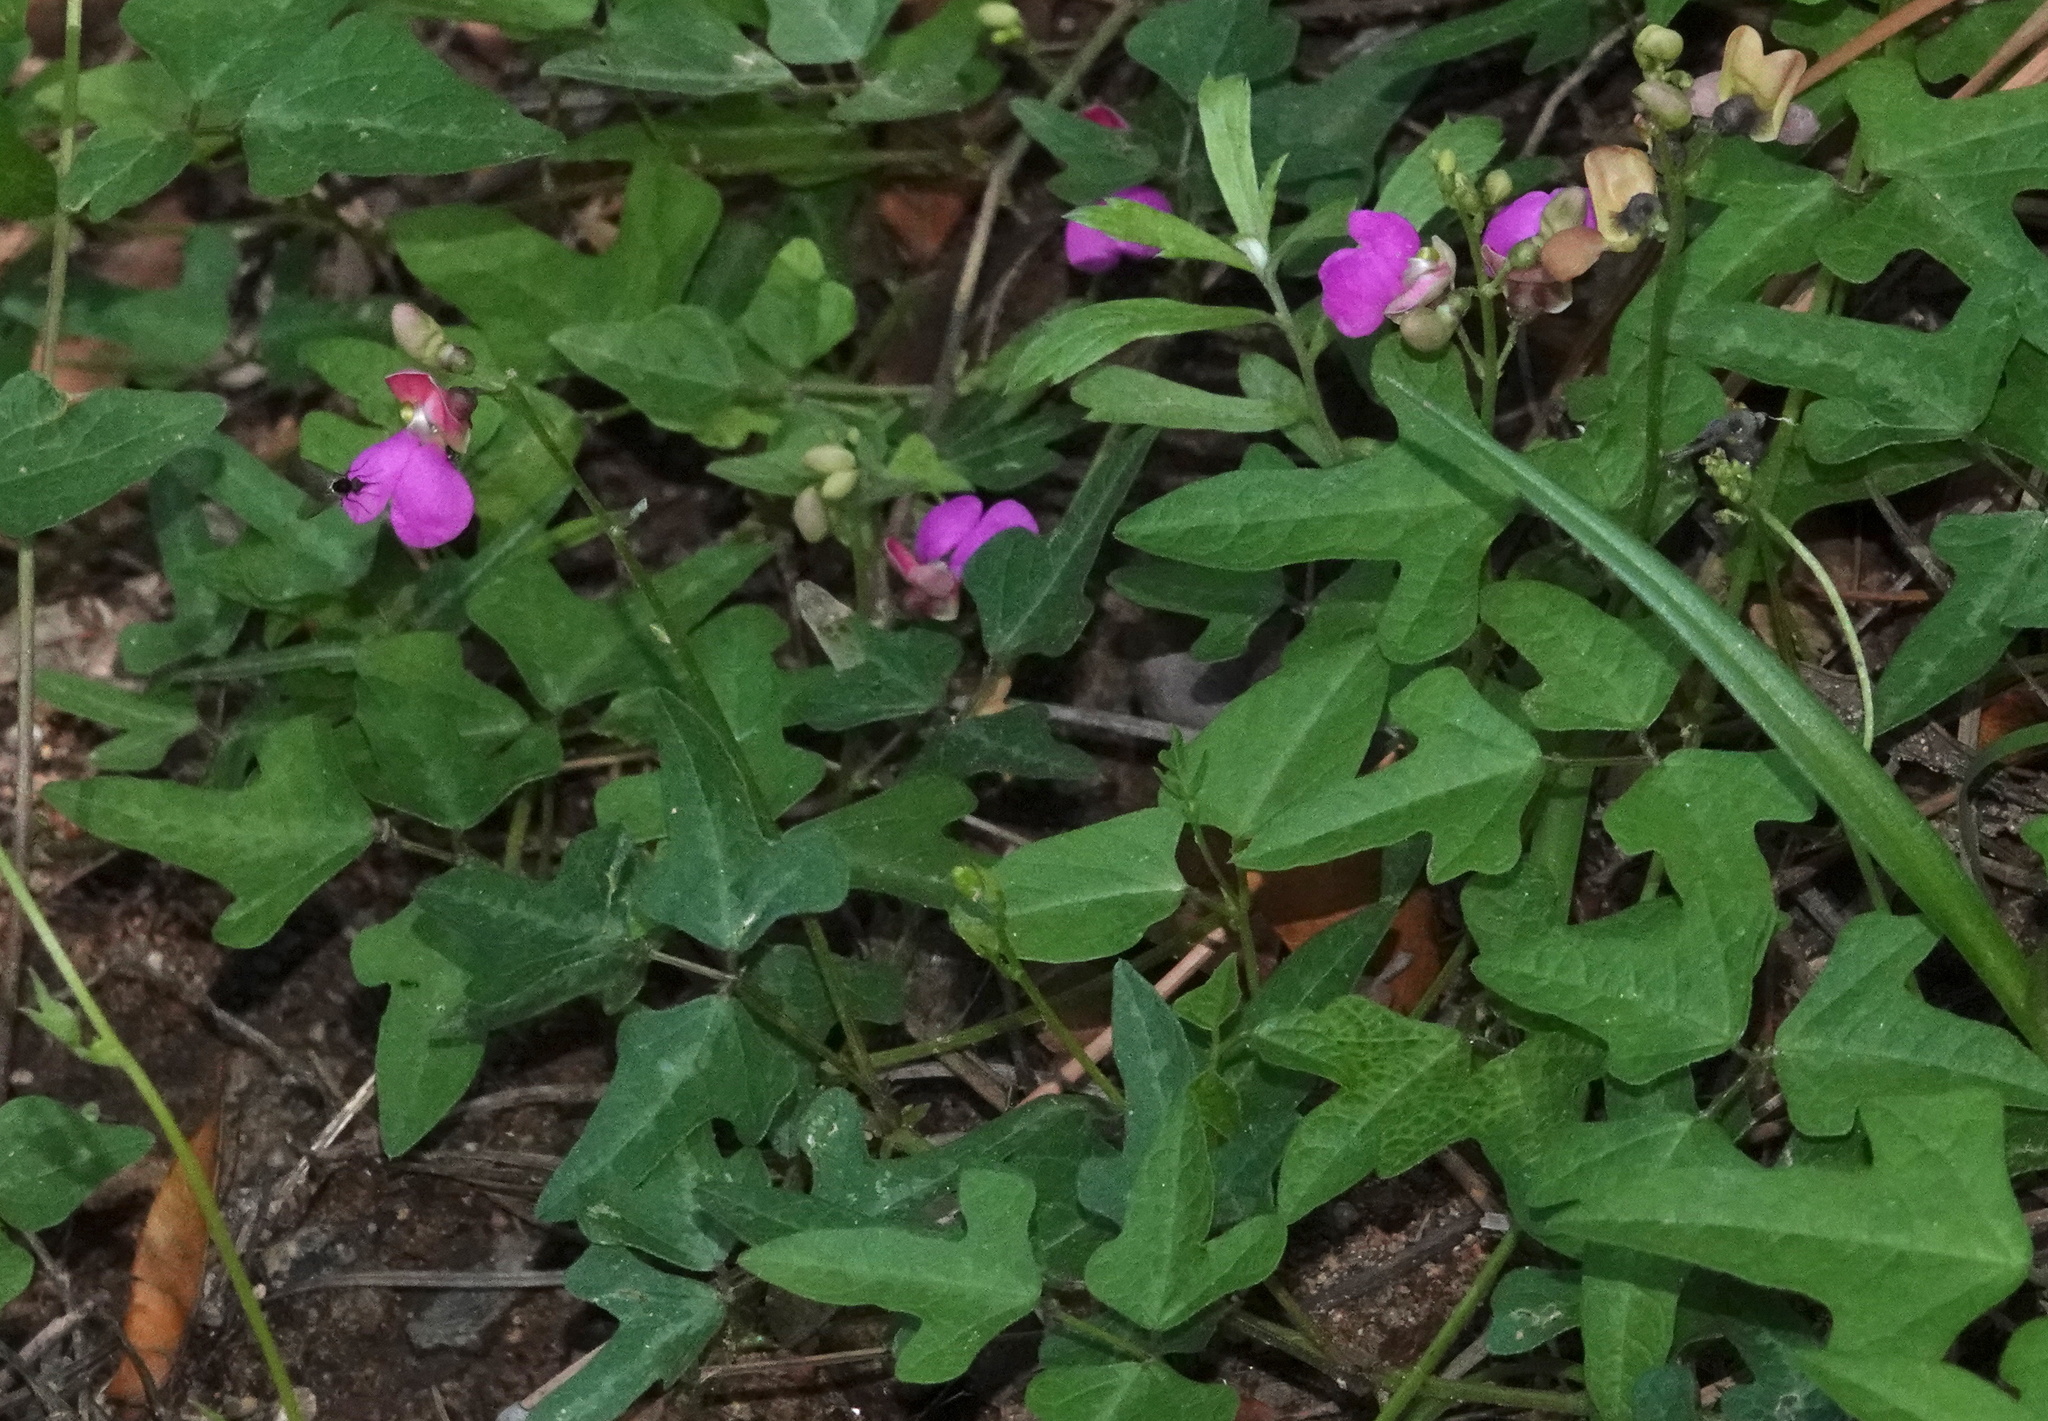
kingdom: Plantae
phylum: Tracheophyta
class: Magnoliopsida
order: Fabales
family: Fabaceae
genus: Phaseolus
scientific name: Phaseolus pedicellatus
